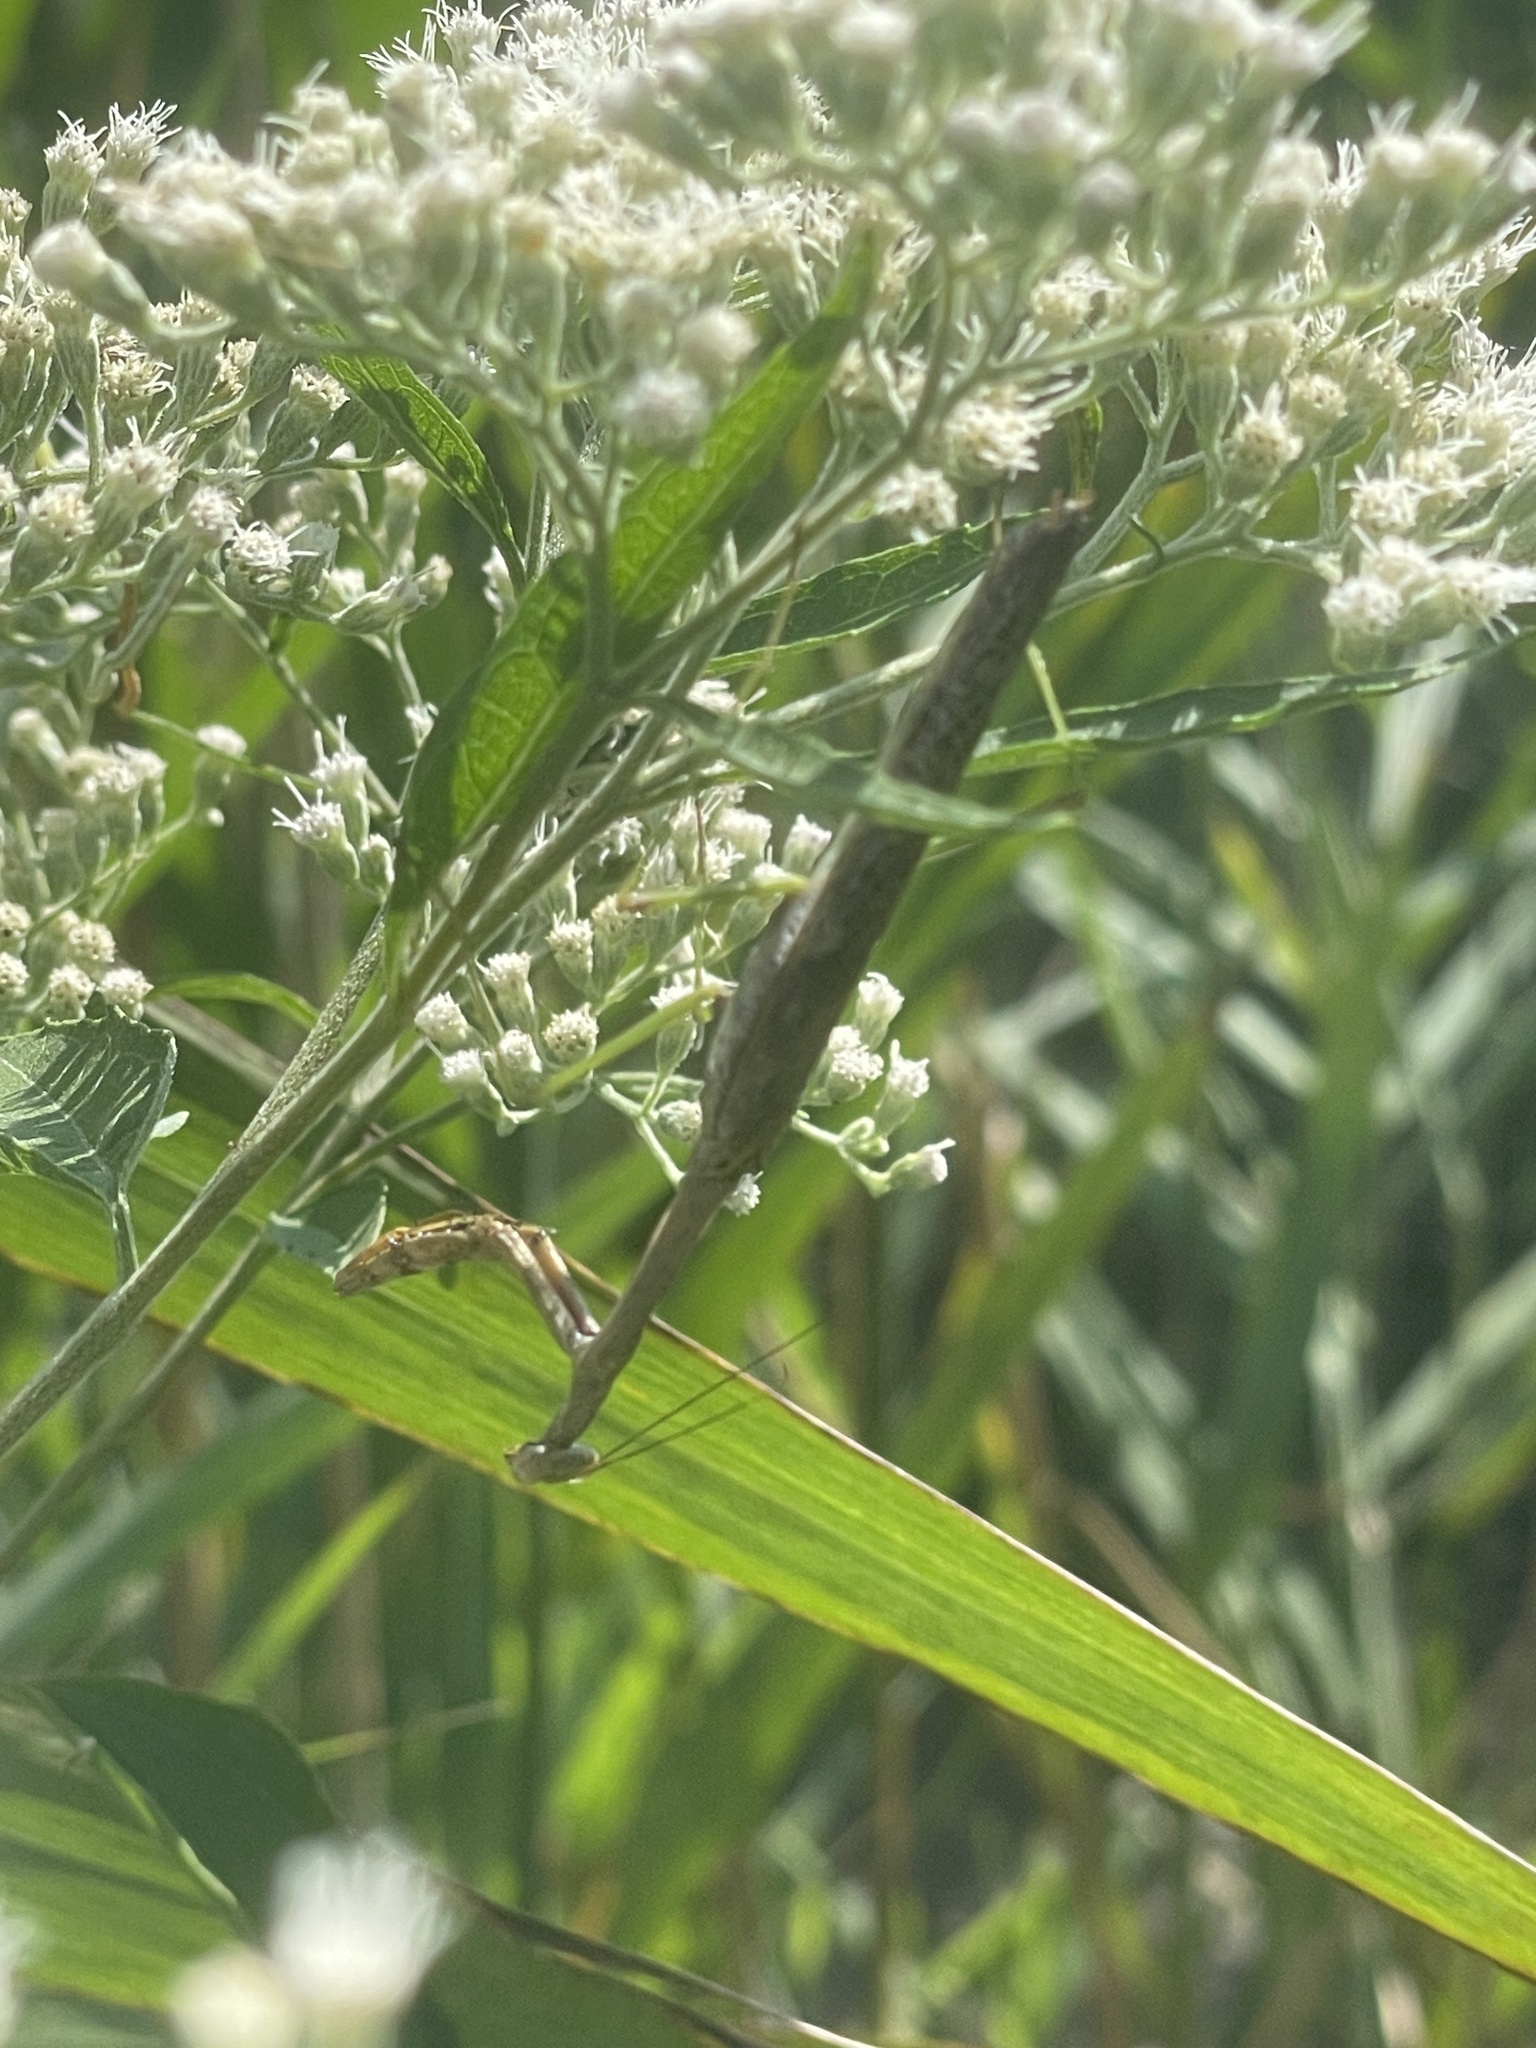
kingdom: Animalia
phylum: Arthropoda
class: Insecta
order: Mantodea
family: Mantidae
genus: Stagmomantis
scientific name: Stagmomantis carolina
